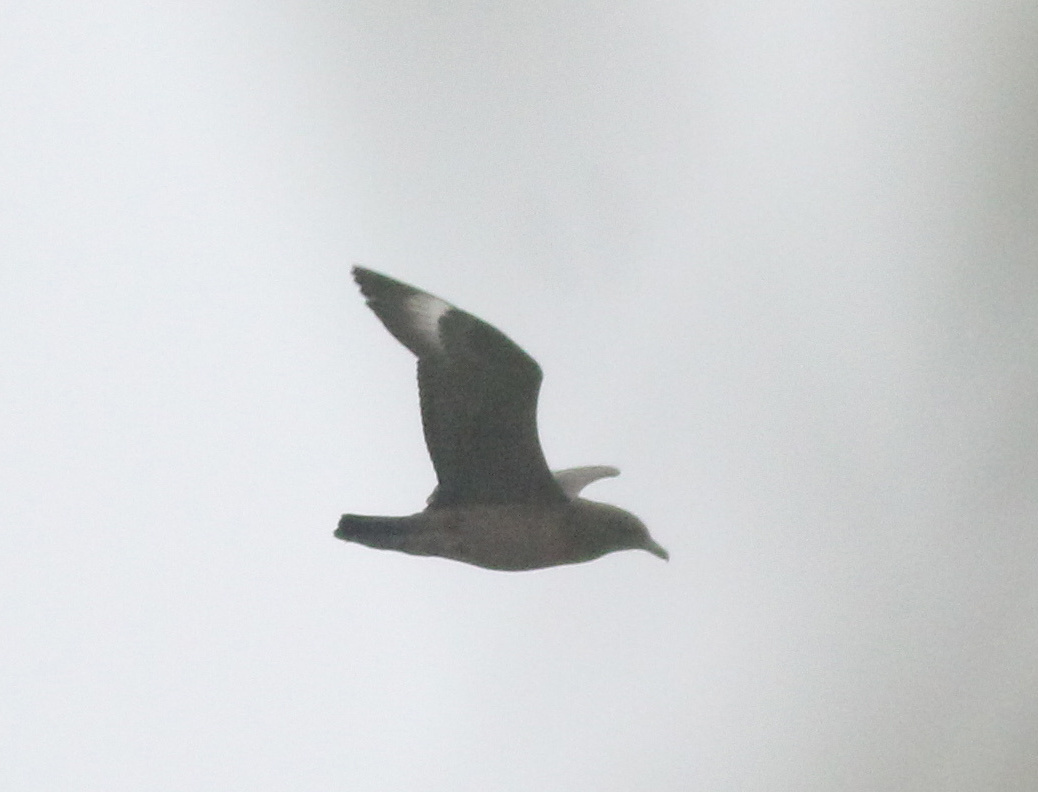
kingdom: Animalia
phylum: Chordata
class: Aves
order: Charadriiformes
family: Stercorariidae
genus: Stercorarius
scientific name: Stercorarius skua
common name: Great skua
